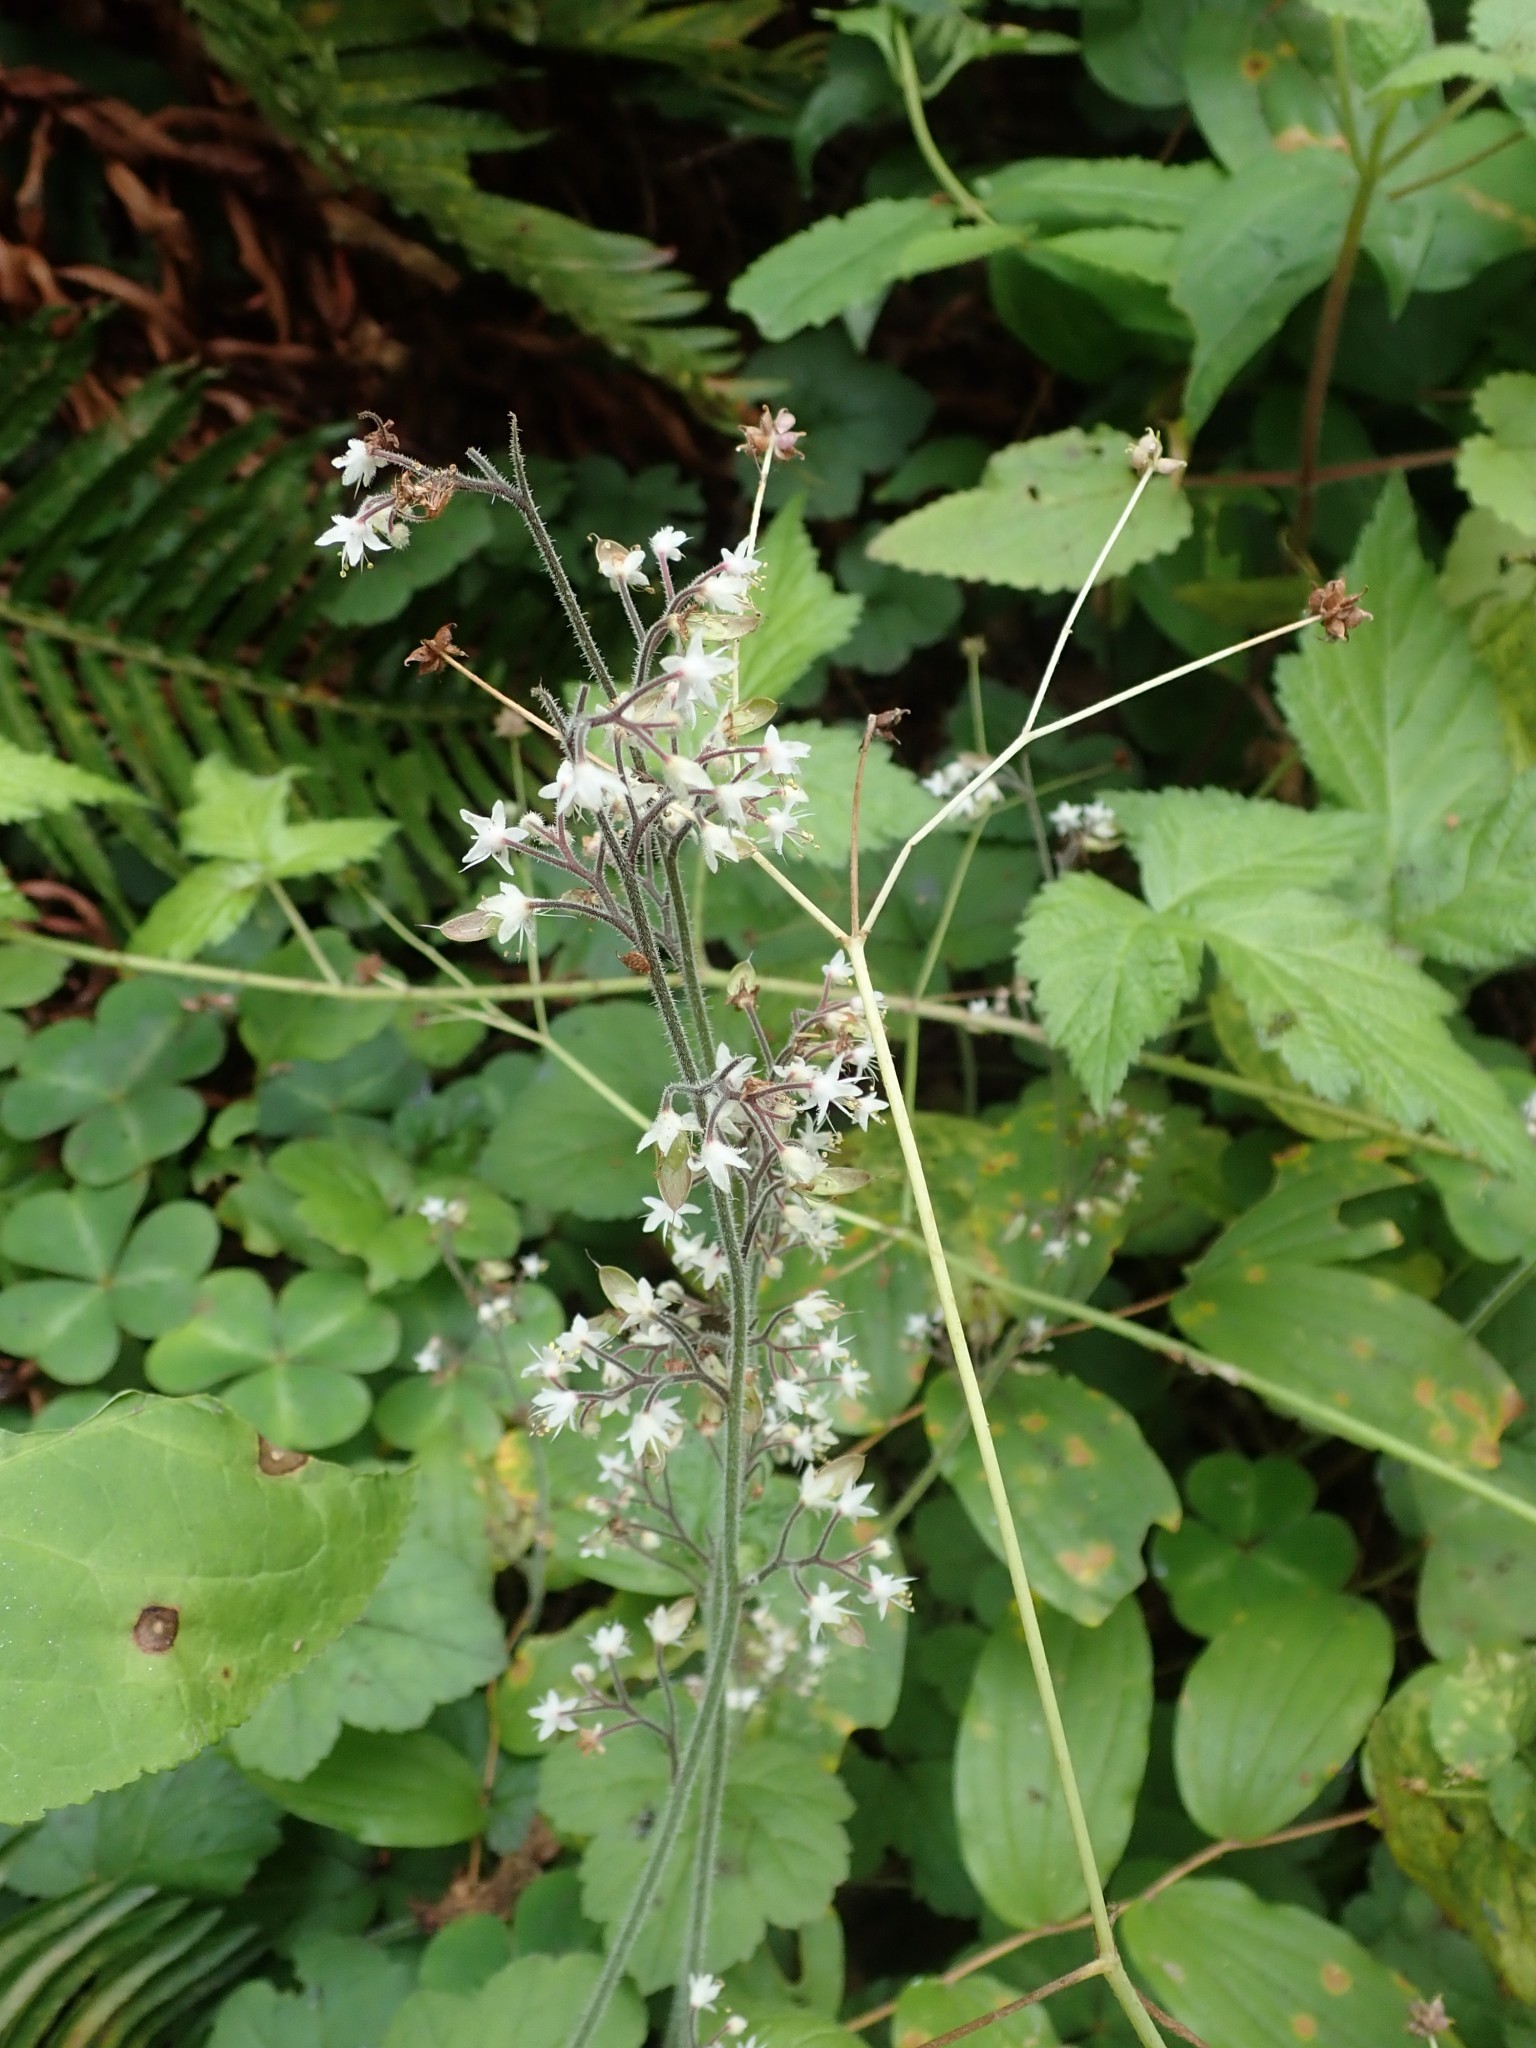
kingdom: Plantae
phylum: Tracheophyta
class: Magnoliopsida
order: Saxifragales
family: Saxifragaceae
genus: Tiarella
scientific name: Tiarella trifoliata
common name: Sugar-scoop
